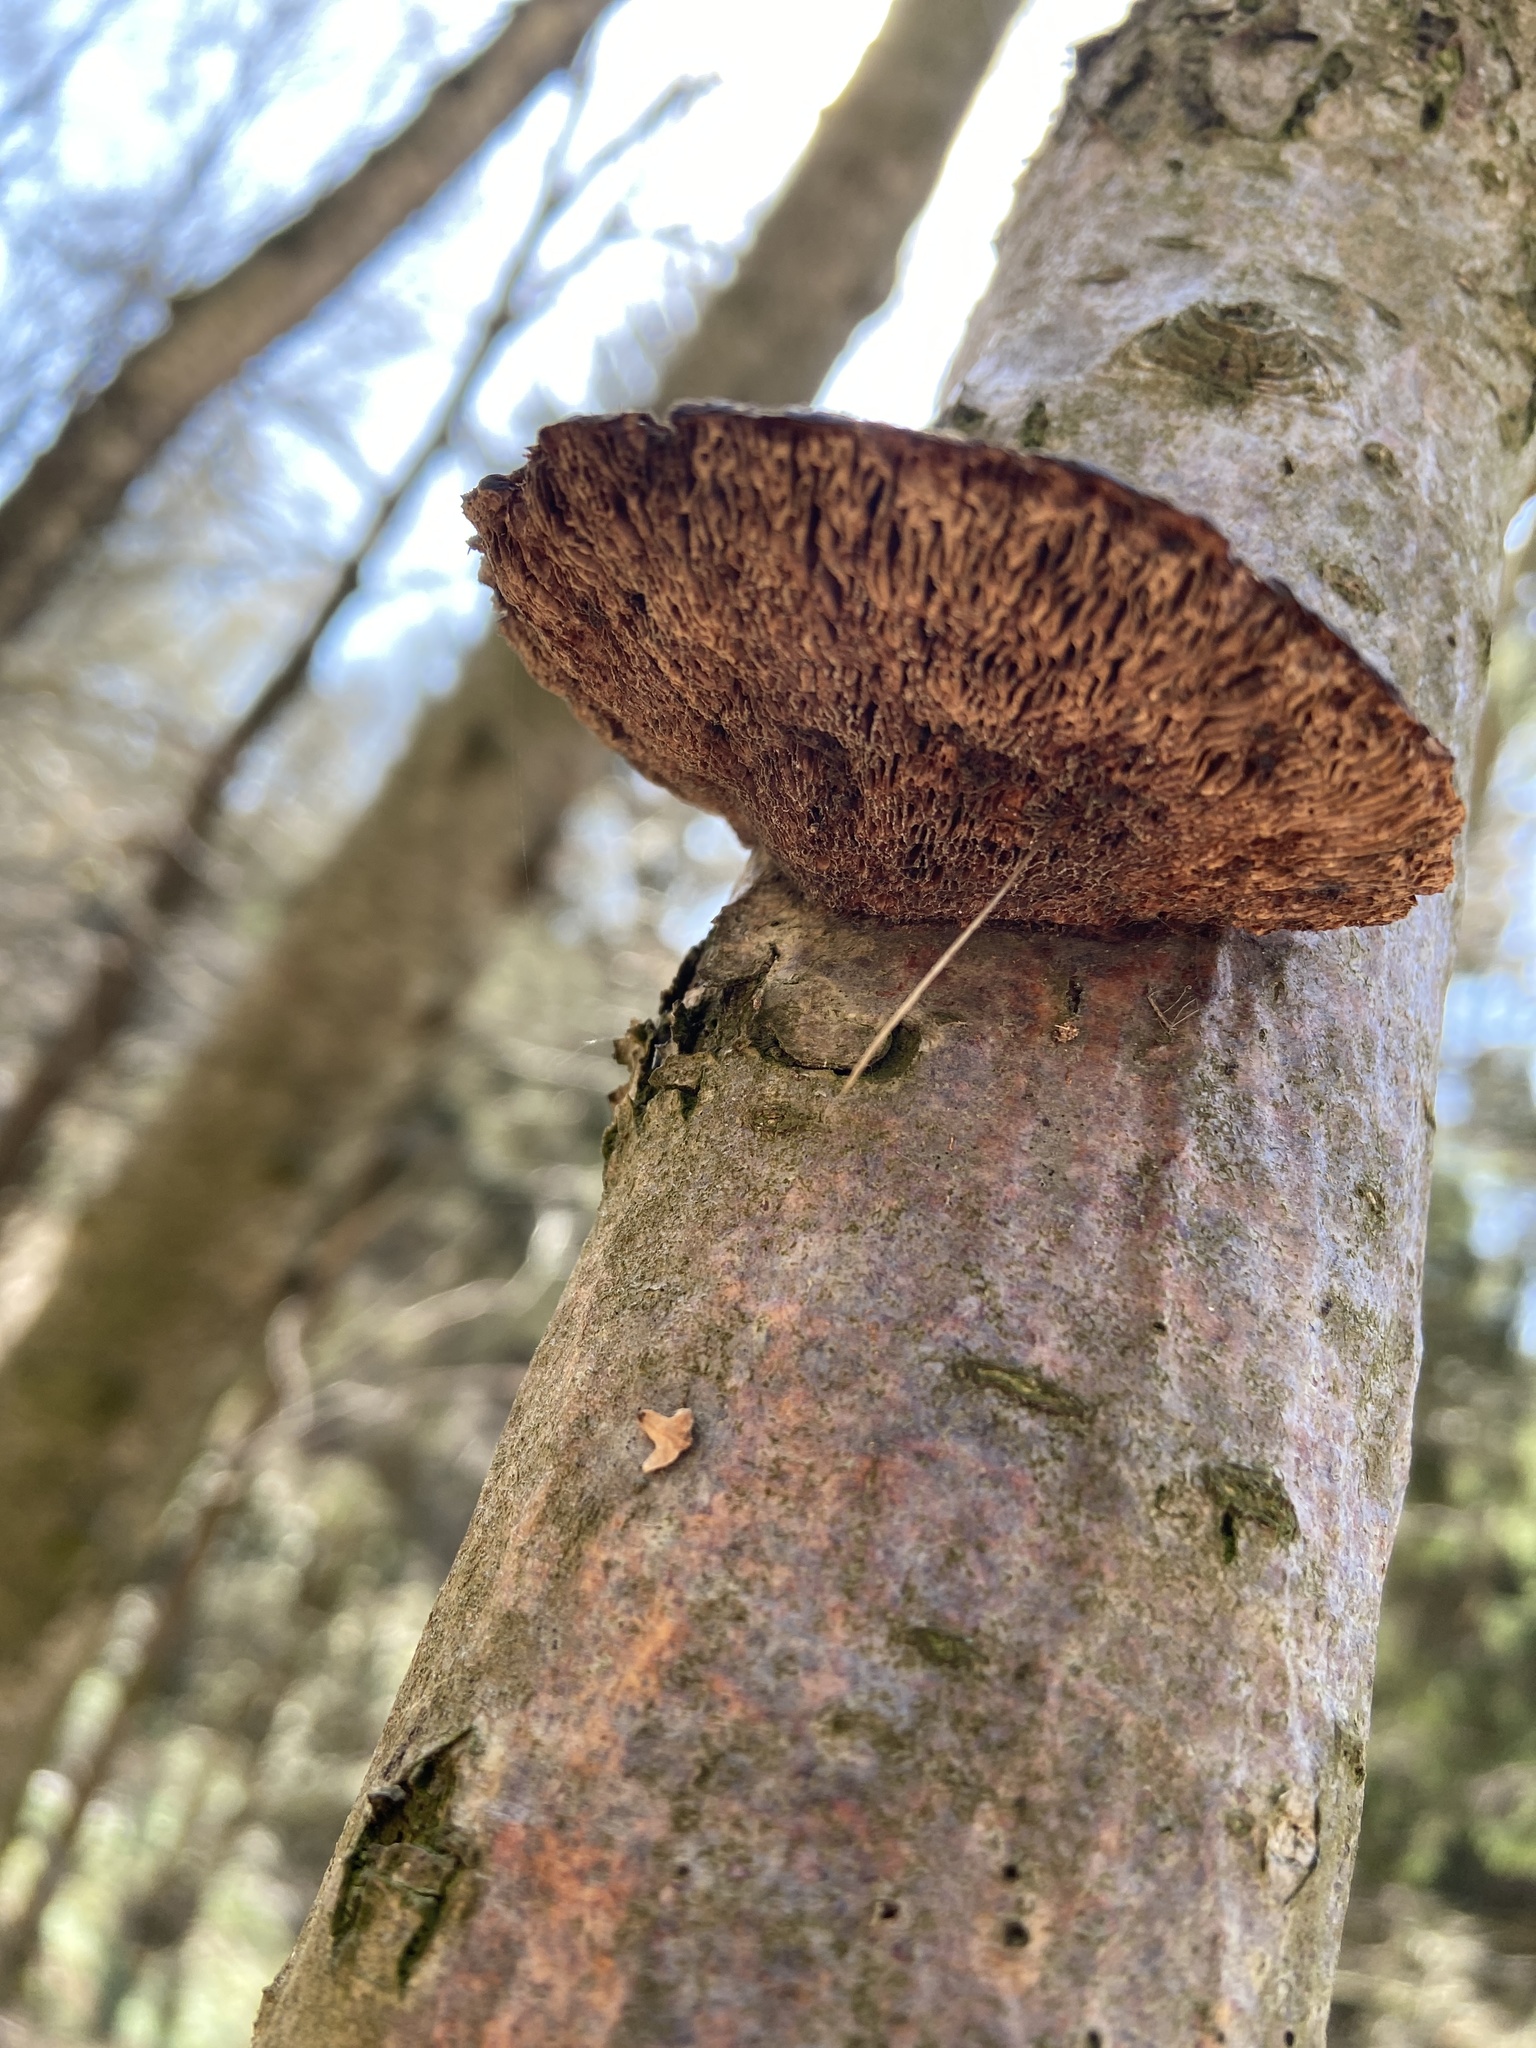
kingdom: Fungi
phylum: Basidiomycota
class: Agaricomycetes
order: Polyporales
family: Polyporaceae
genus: Daedaleopsis
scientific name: Daedaleopsis confragosa
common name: Blushing bracket
